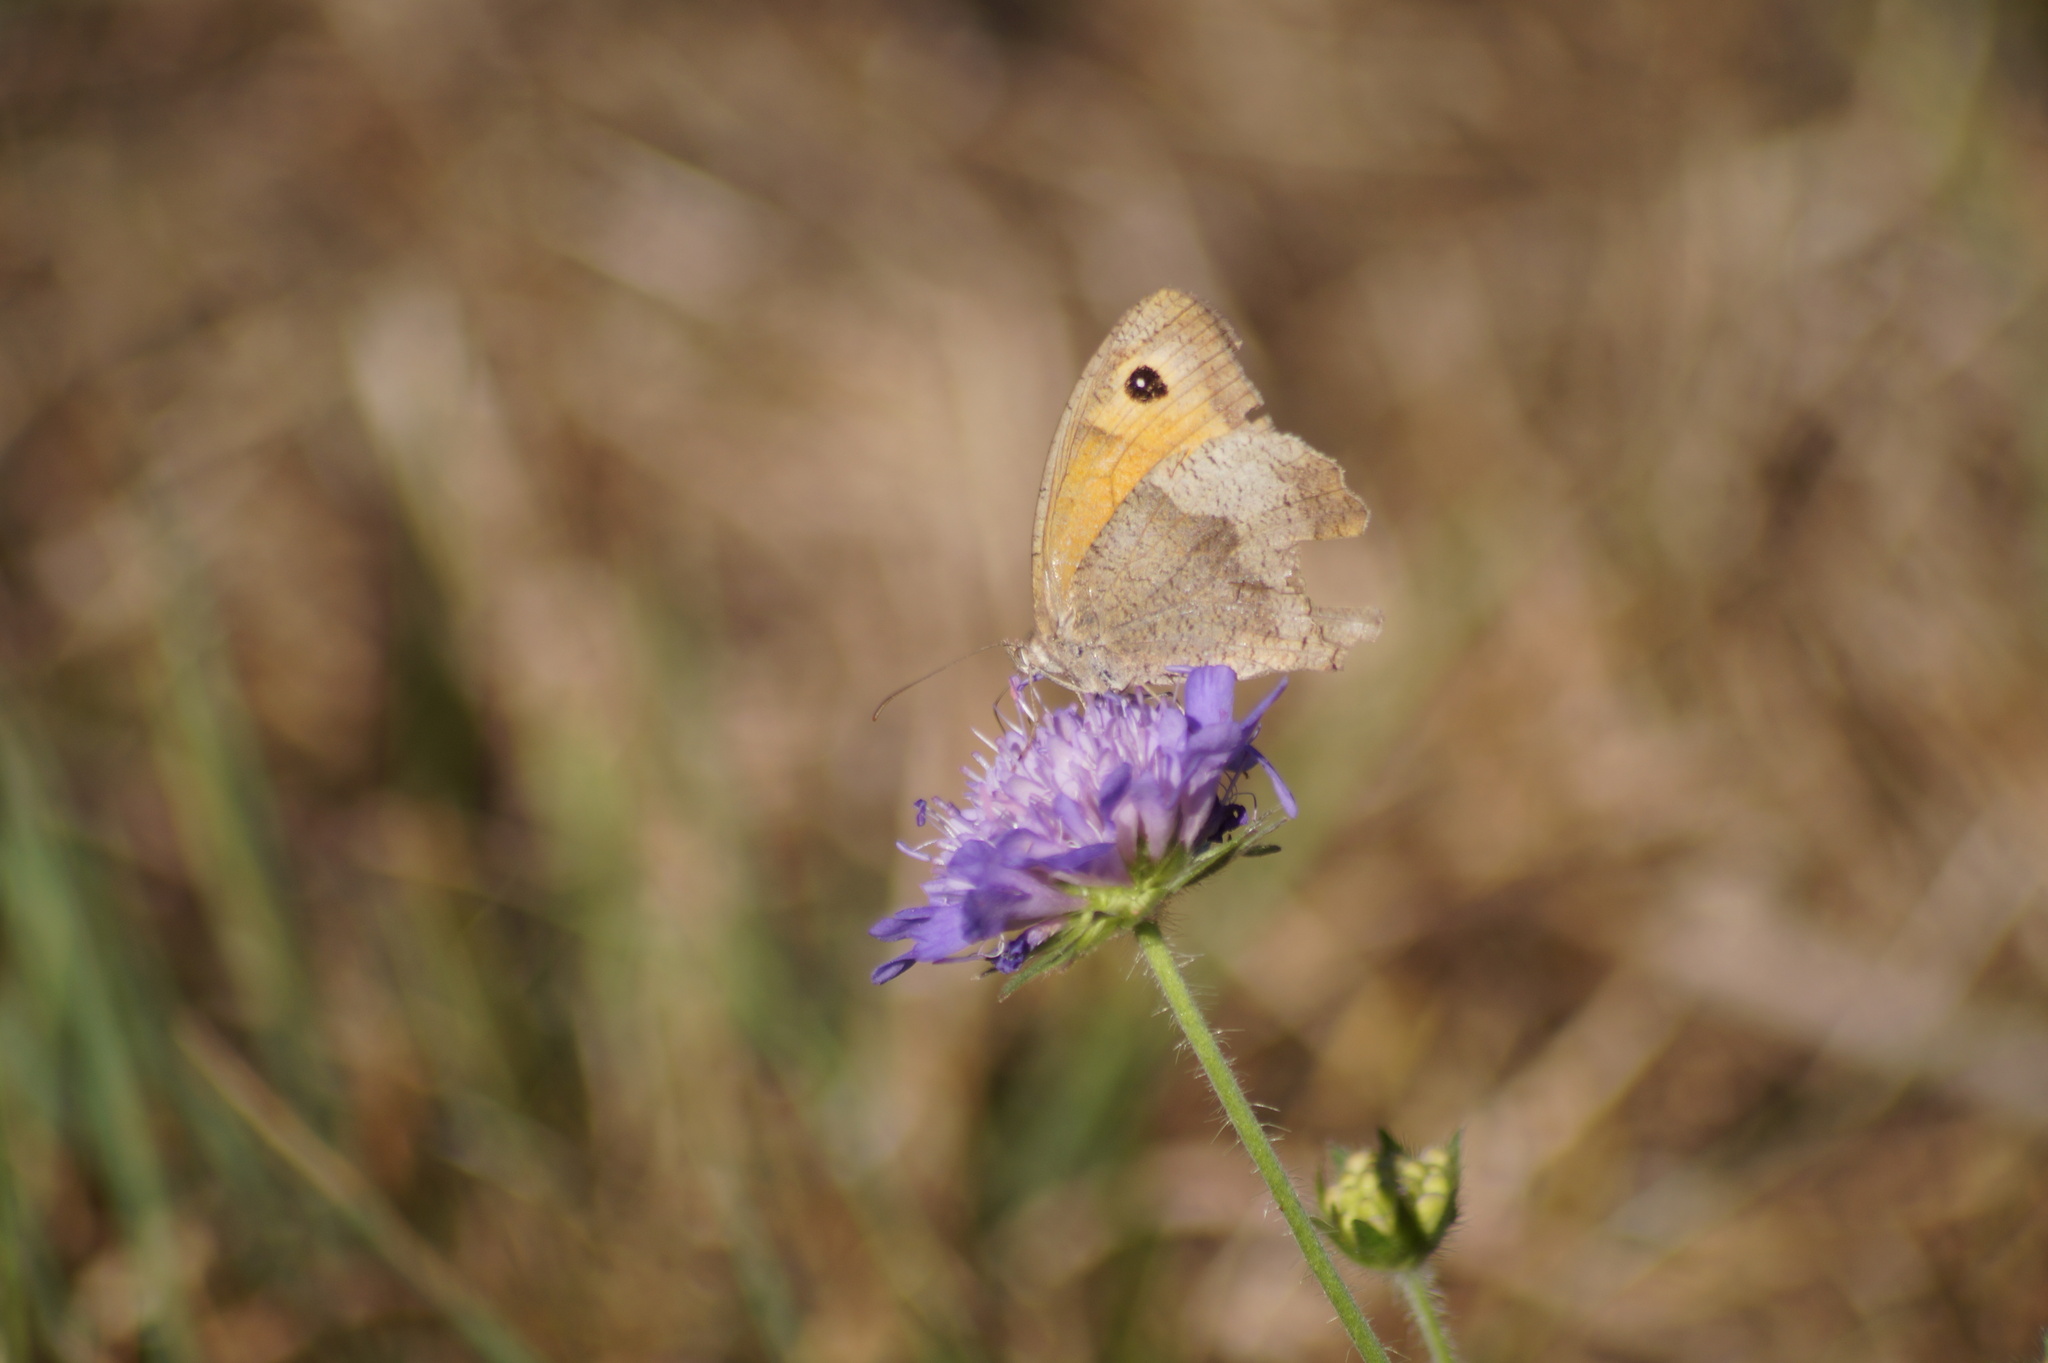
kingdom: Animalia
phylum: Arthropoda
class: Insecta
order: Lepidoptera
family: Nymphalidae
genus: Maniola
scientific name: Maniola jurtina
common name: Meadow brown
